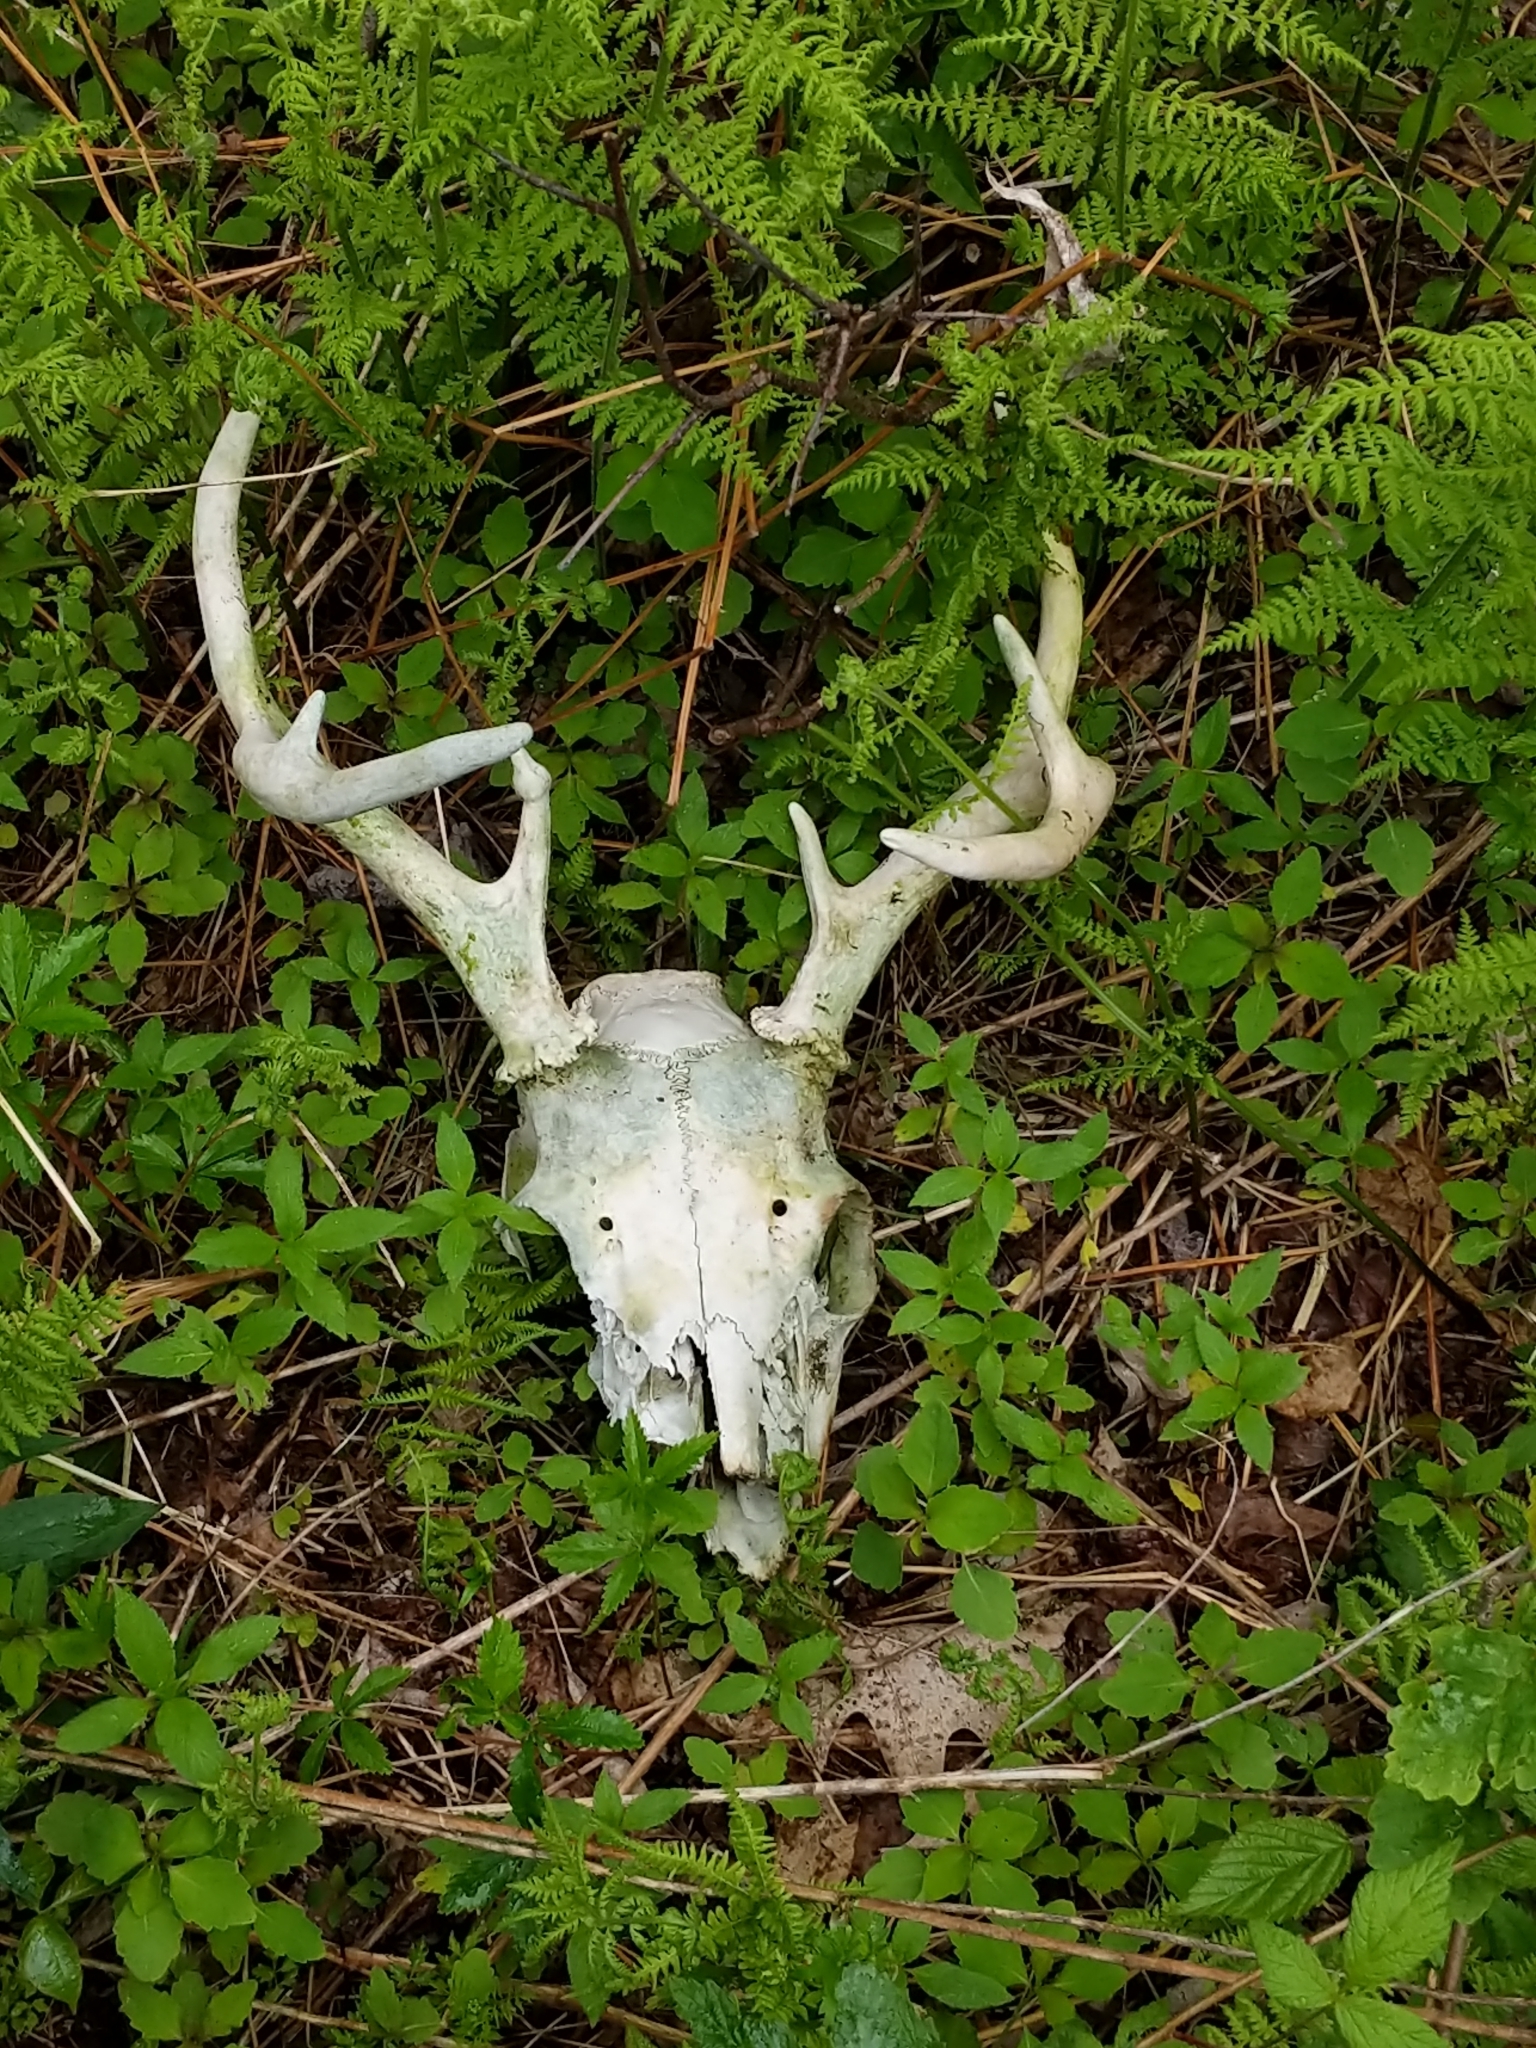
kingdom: Animalia
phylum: Chordata
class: Mammalia
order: Artiodactyla
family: Cervidae
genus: Odocoileus
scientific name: Odocoileus virginianus
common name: White-tailed deer
